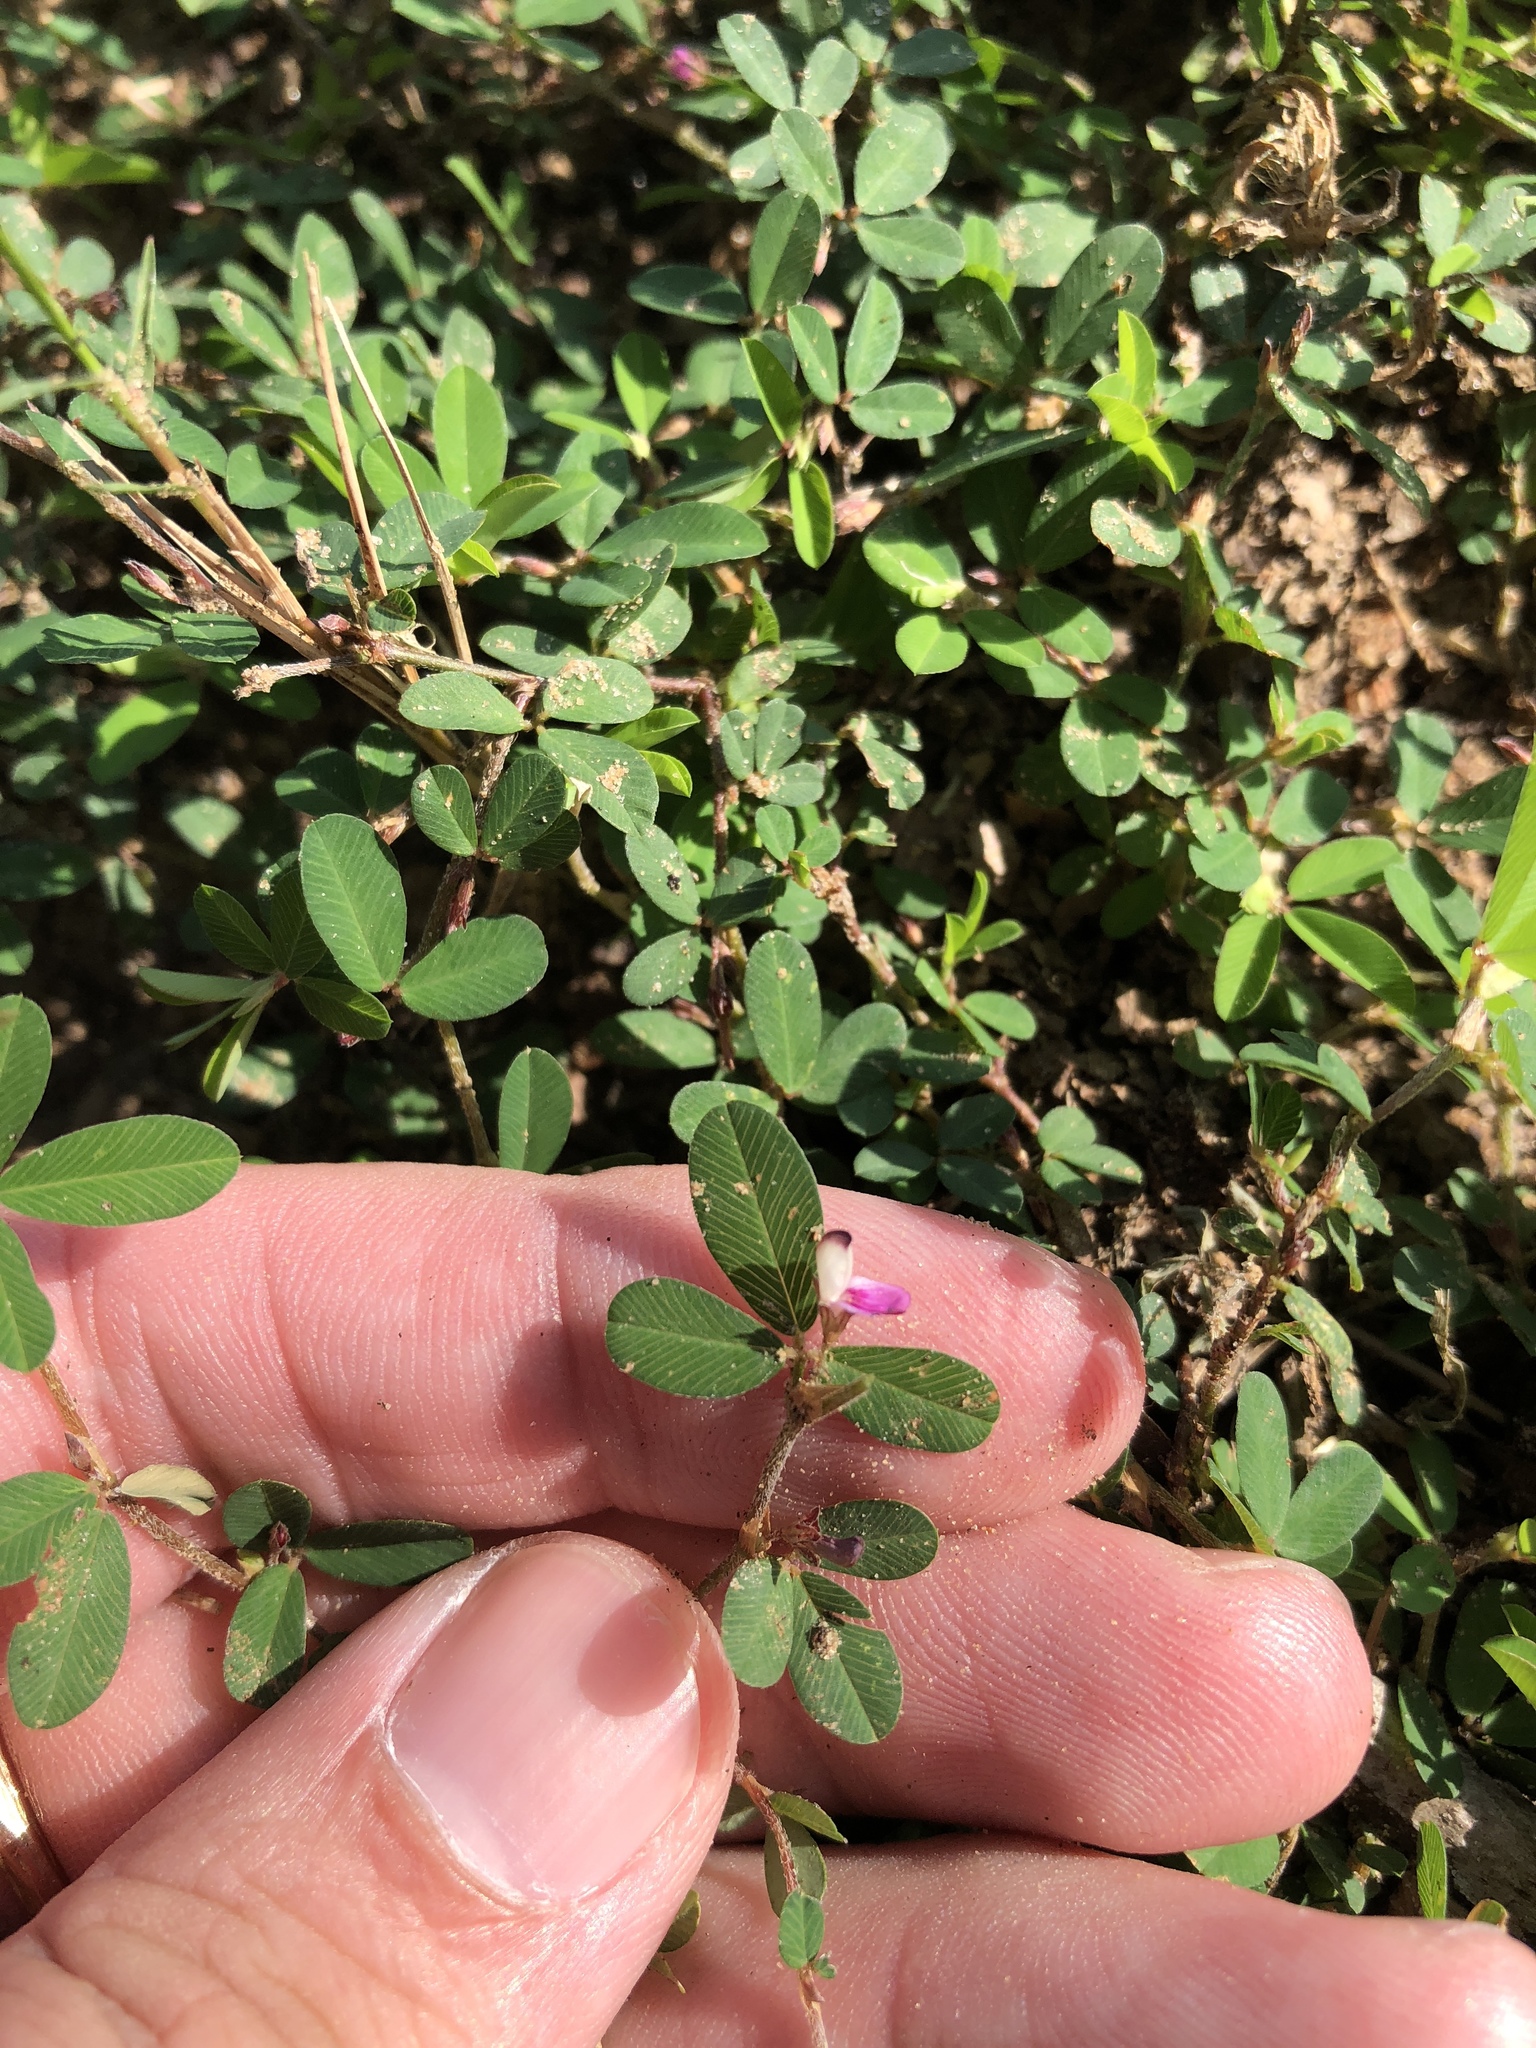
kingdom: Plantae
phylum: Tracheophyta
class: Magnoliopsida
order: Fabales
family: Fabaceae
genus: Kummerowia
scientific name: Kummerowia striata
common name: Japanese clover
